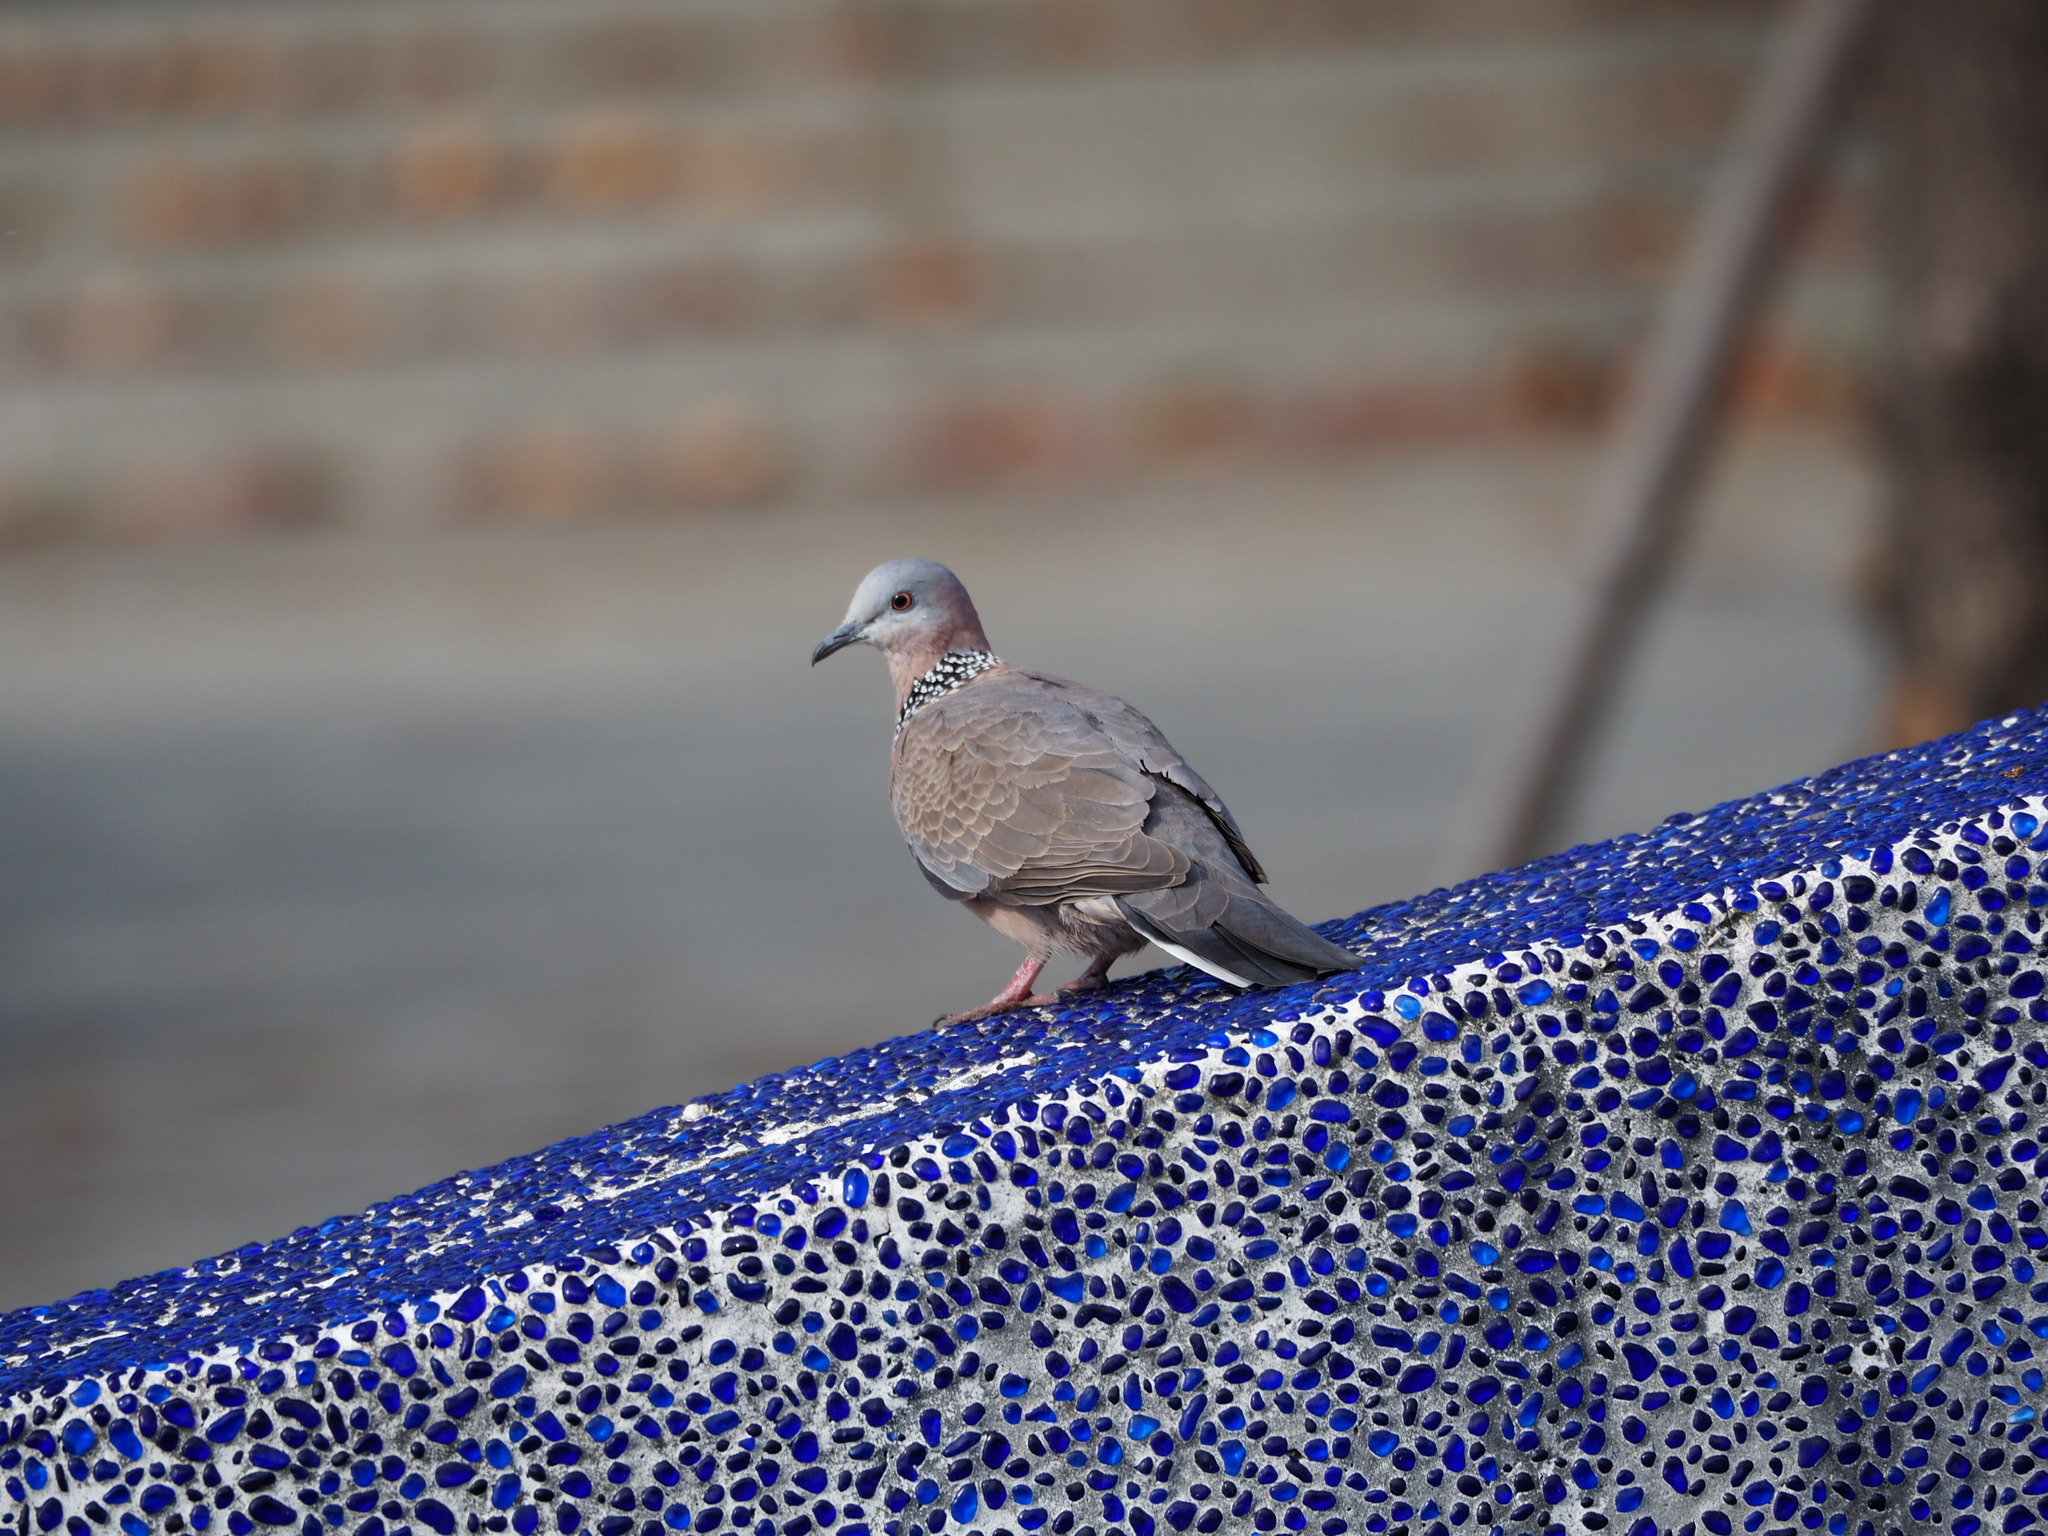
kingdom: Animalia
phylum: Chordata
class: Aves
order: Columbiformes
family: Columbidae
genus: Spilopelia
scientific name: Spilopelia chinensis
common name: Spotted dove
